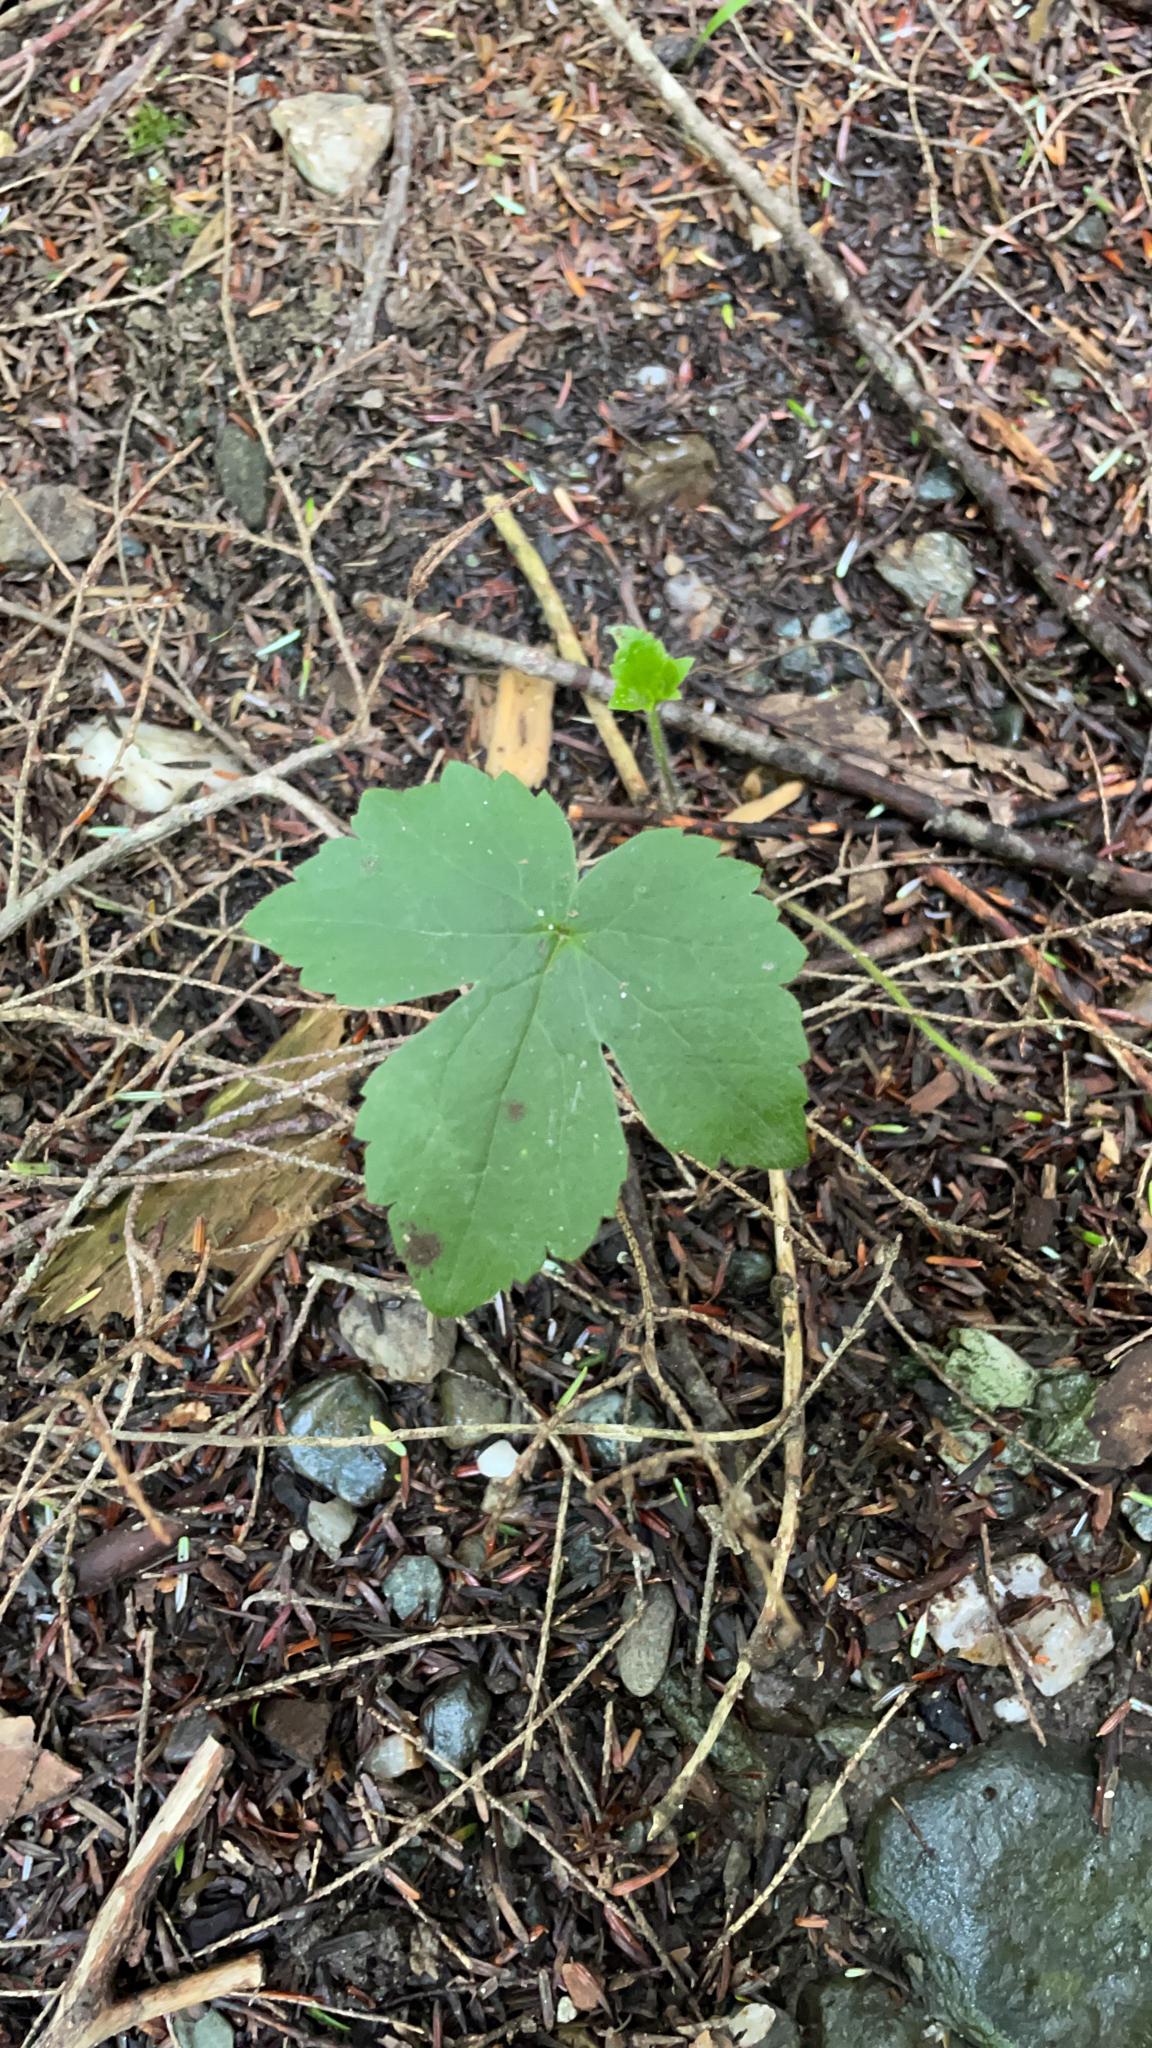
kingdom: Plantae
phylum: Tracheophyta
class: Magnoliopsida
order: Ranunculales
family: Ranunculaceae
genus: Ranunculus
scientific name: Ranunculus recurvatus
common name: Blisterwort
